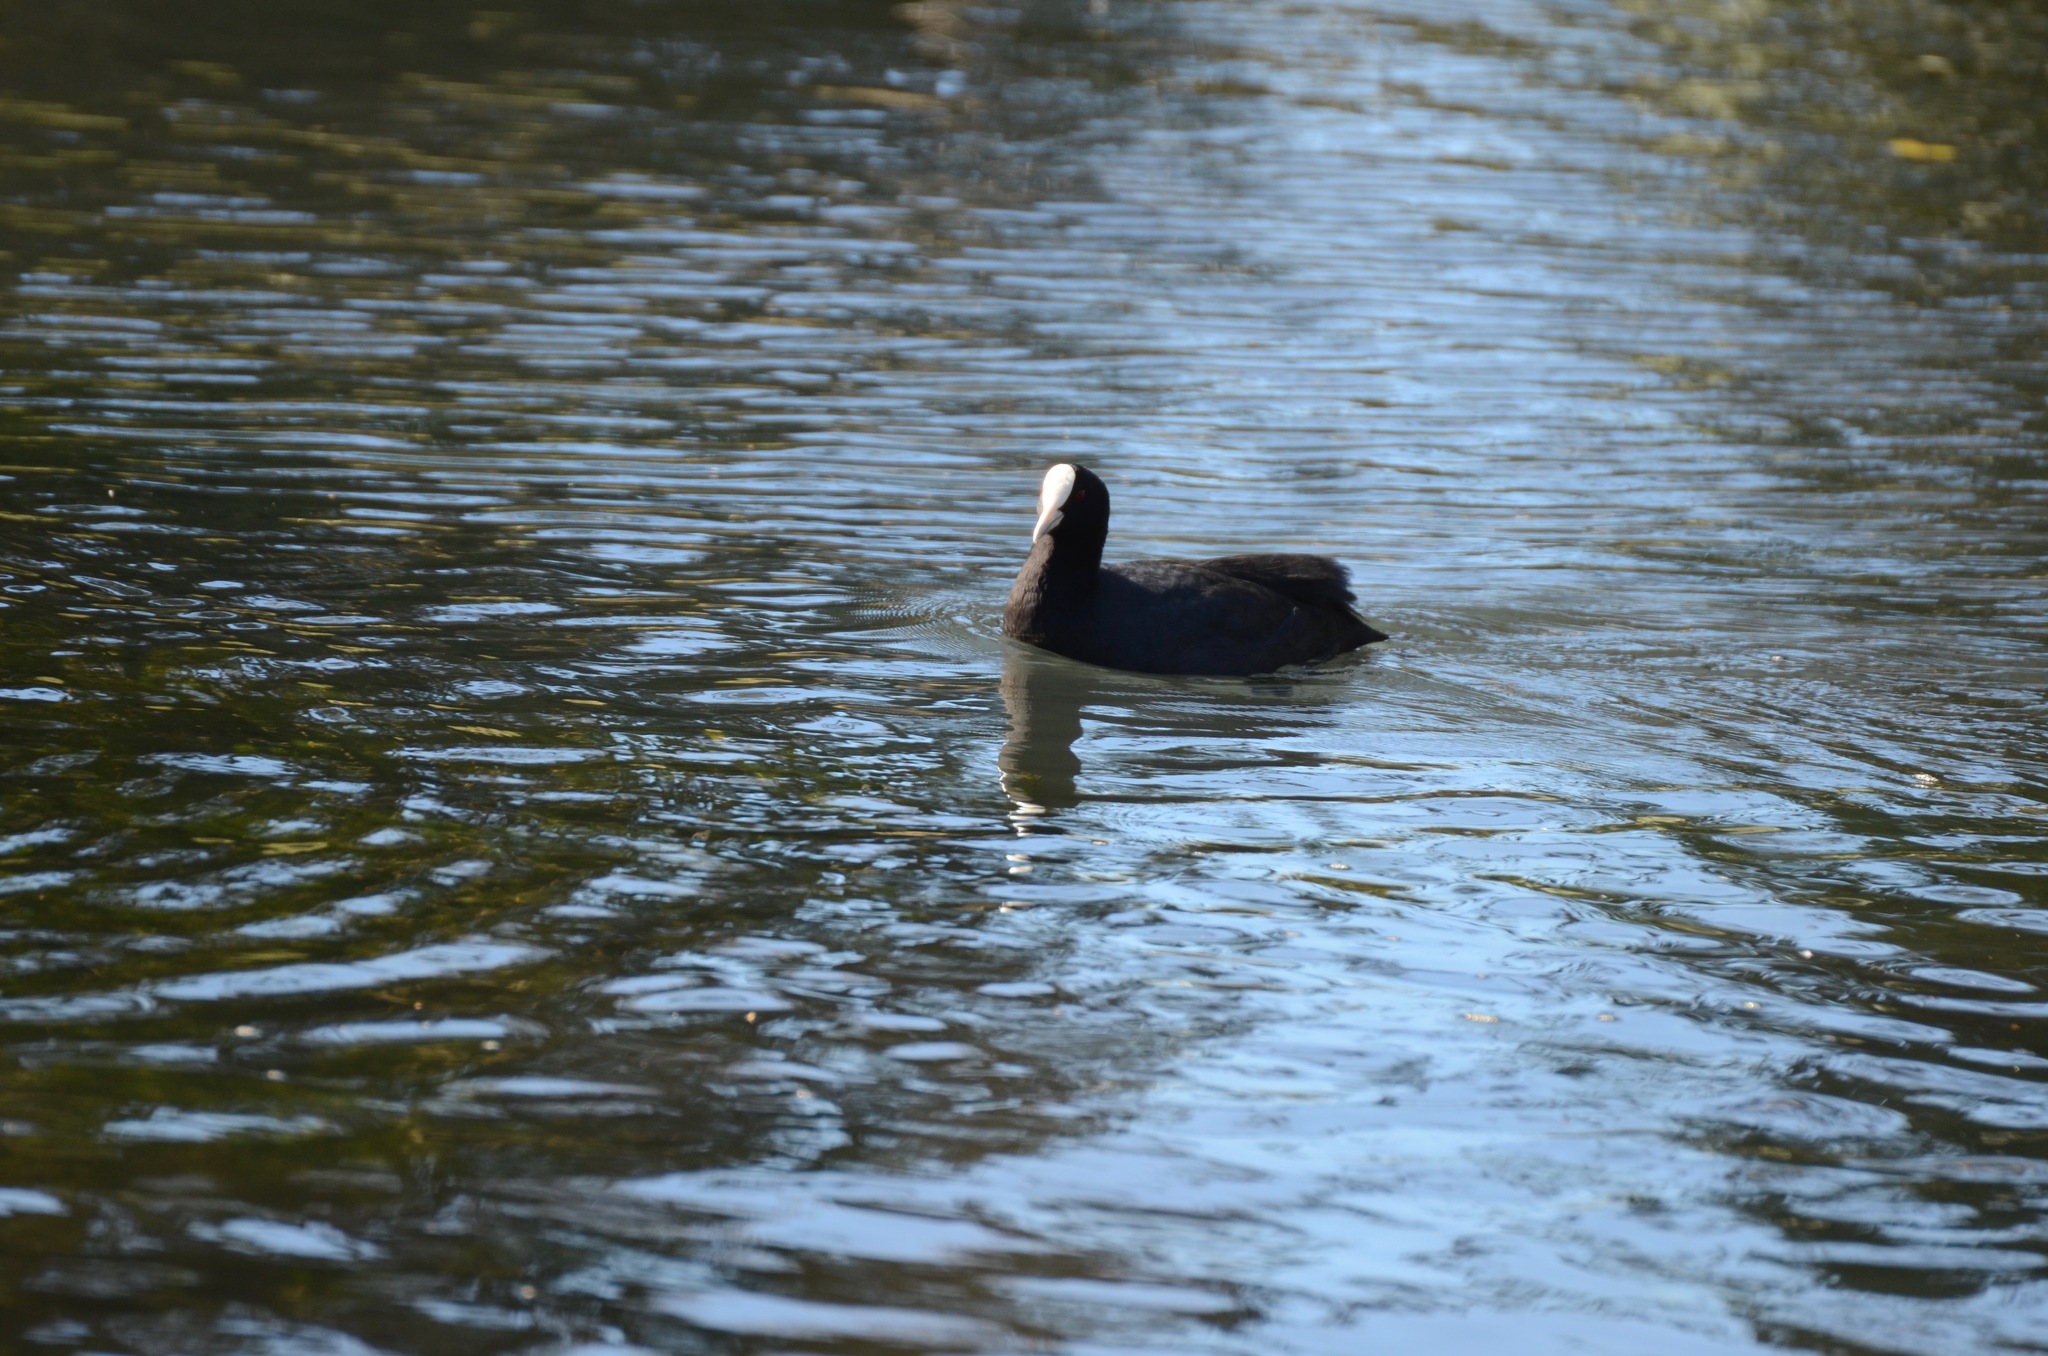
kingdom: Animalia
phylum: Chordata
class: Aves
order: Gruiformes
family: Rallidae
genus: Fulica
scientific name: Fulica atra
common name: Eurasian coot
